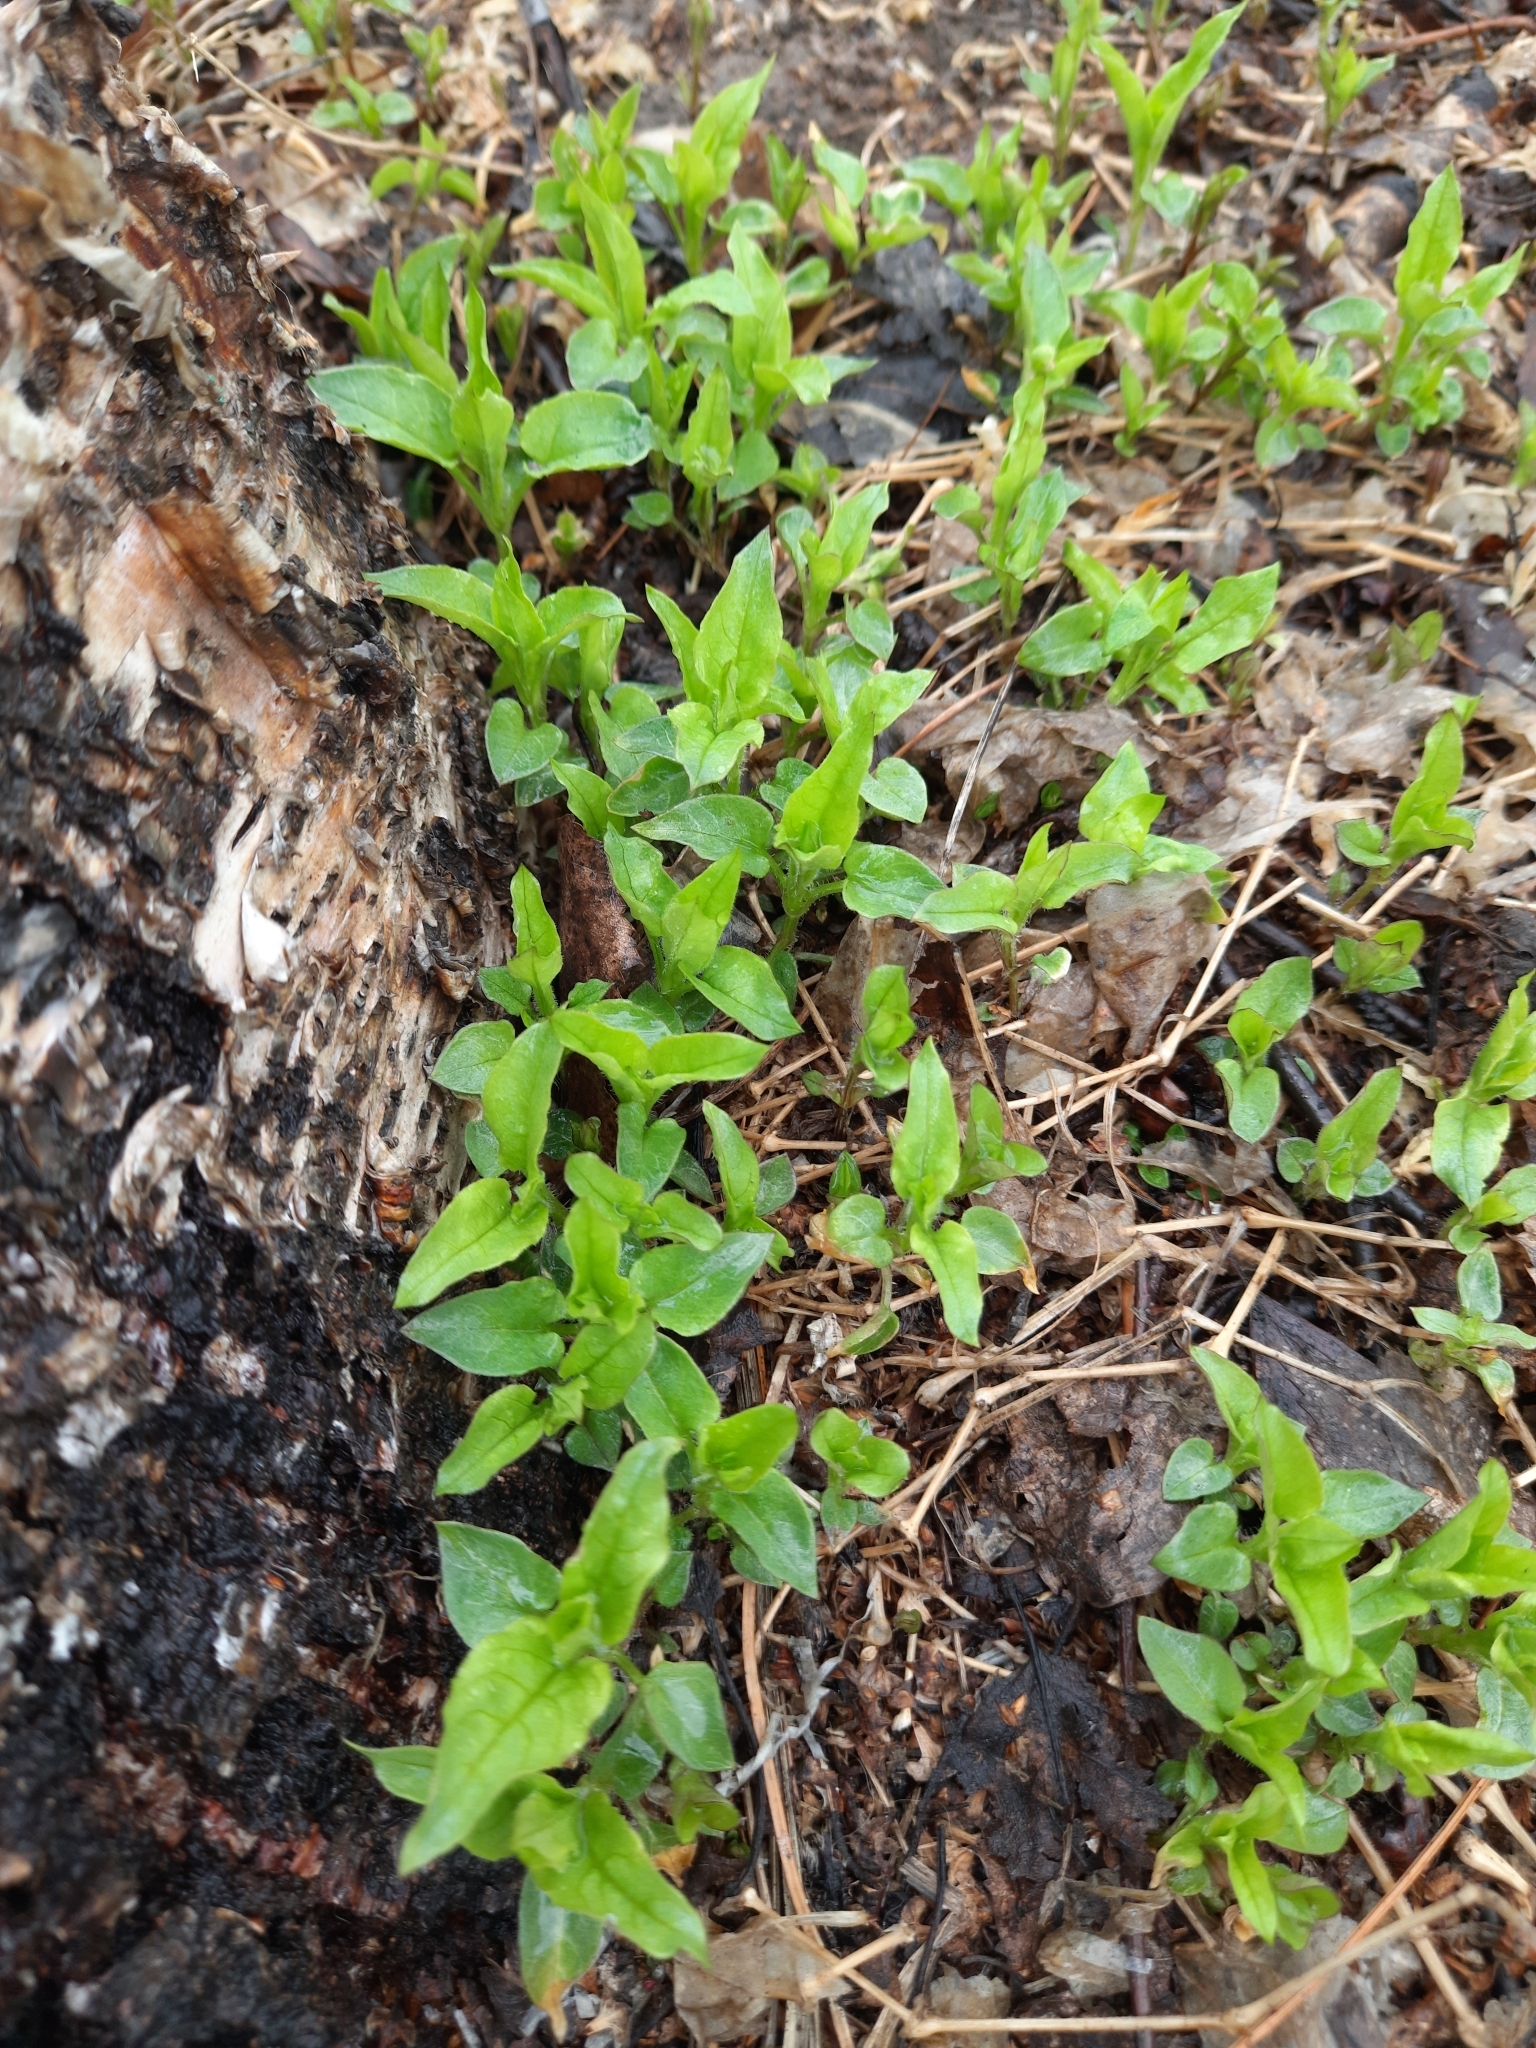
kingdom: Plantae
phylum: Tracheophyta
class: Magnoliopsida
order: Caryophyllales
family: Caryophyllaceae
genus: Stellaria
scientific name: Stellaria bungeana
